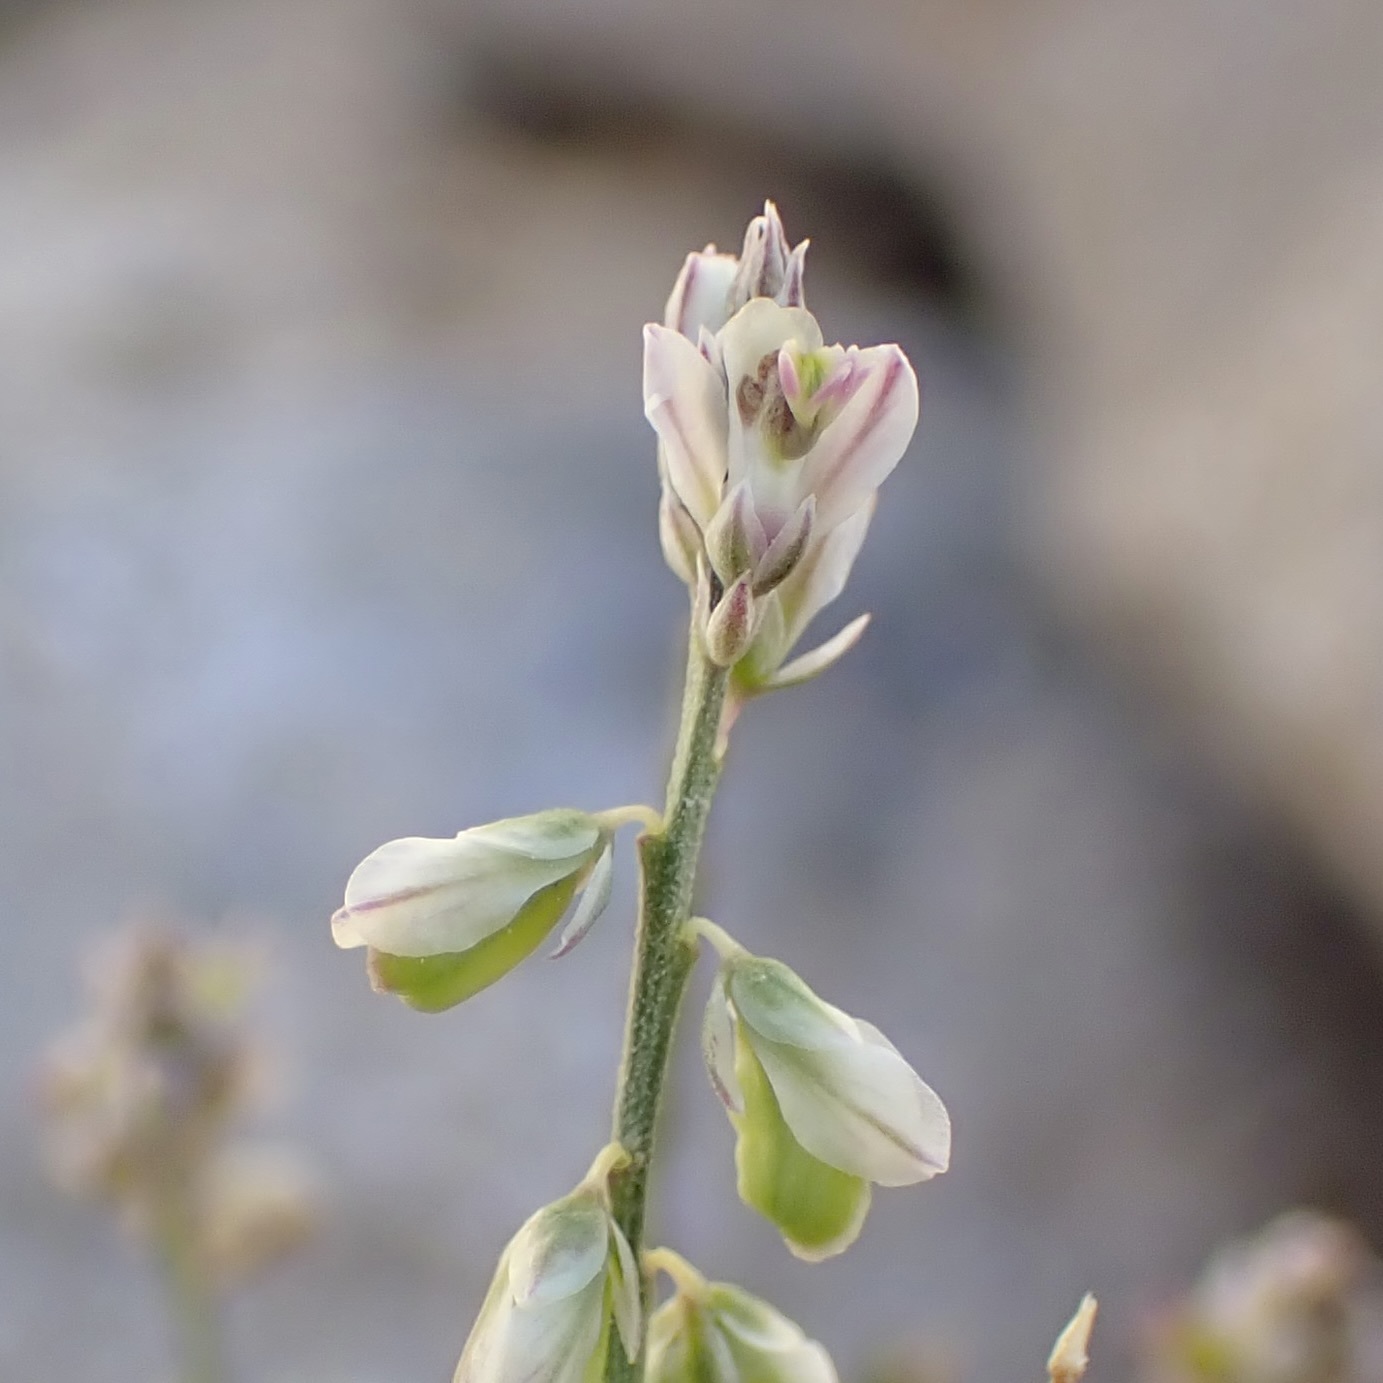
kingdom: Plantae
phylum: Tracheophyta
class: Magnoliopsida
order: Fabales
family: Polygalaceae
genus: Polygala
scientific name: Polygala scoparioides
